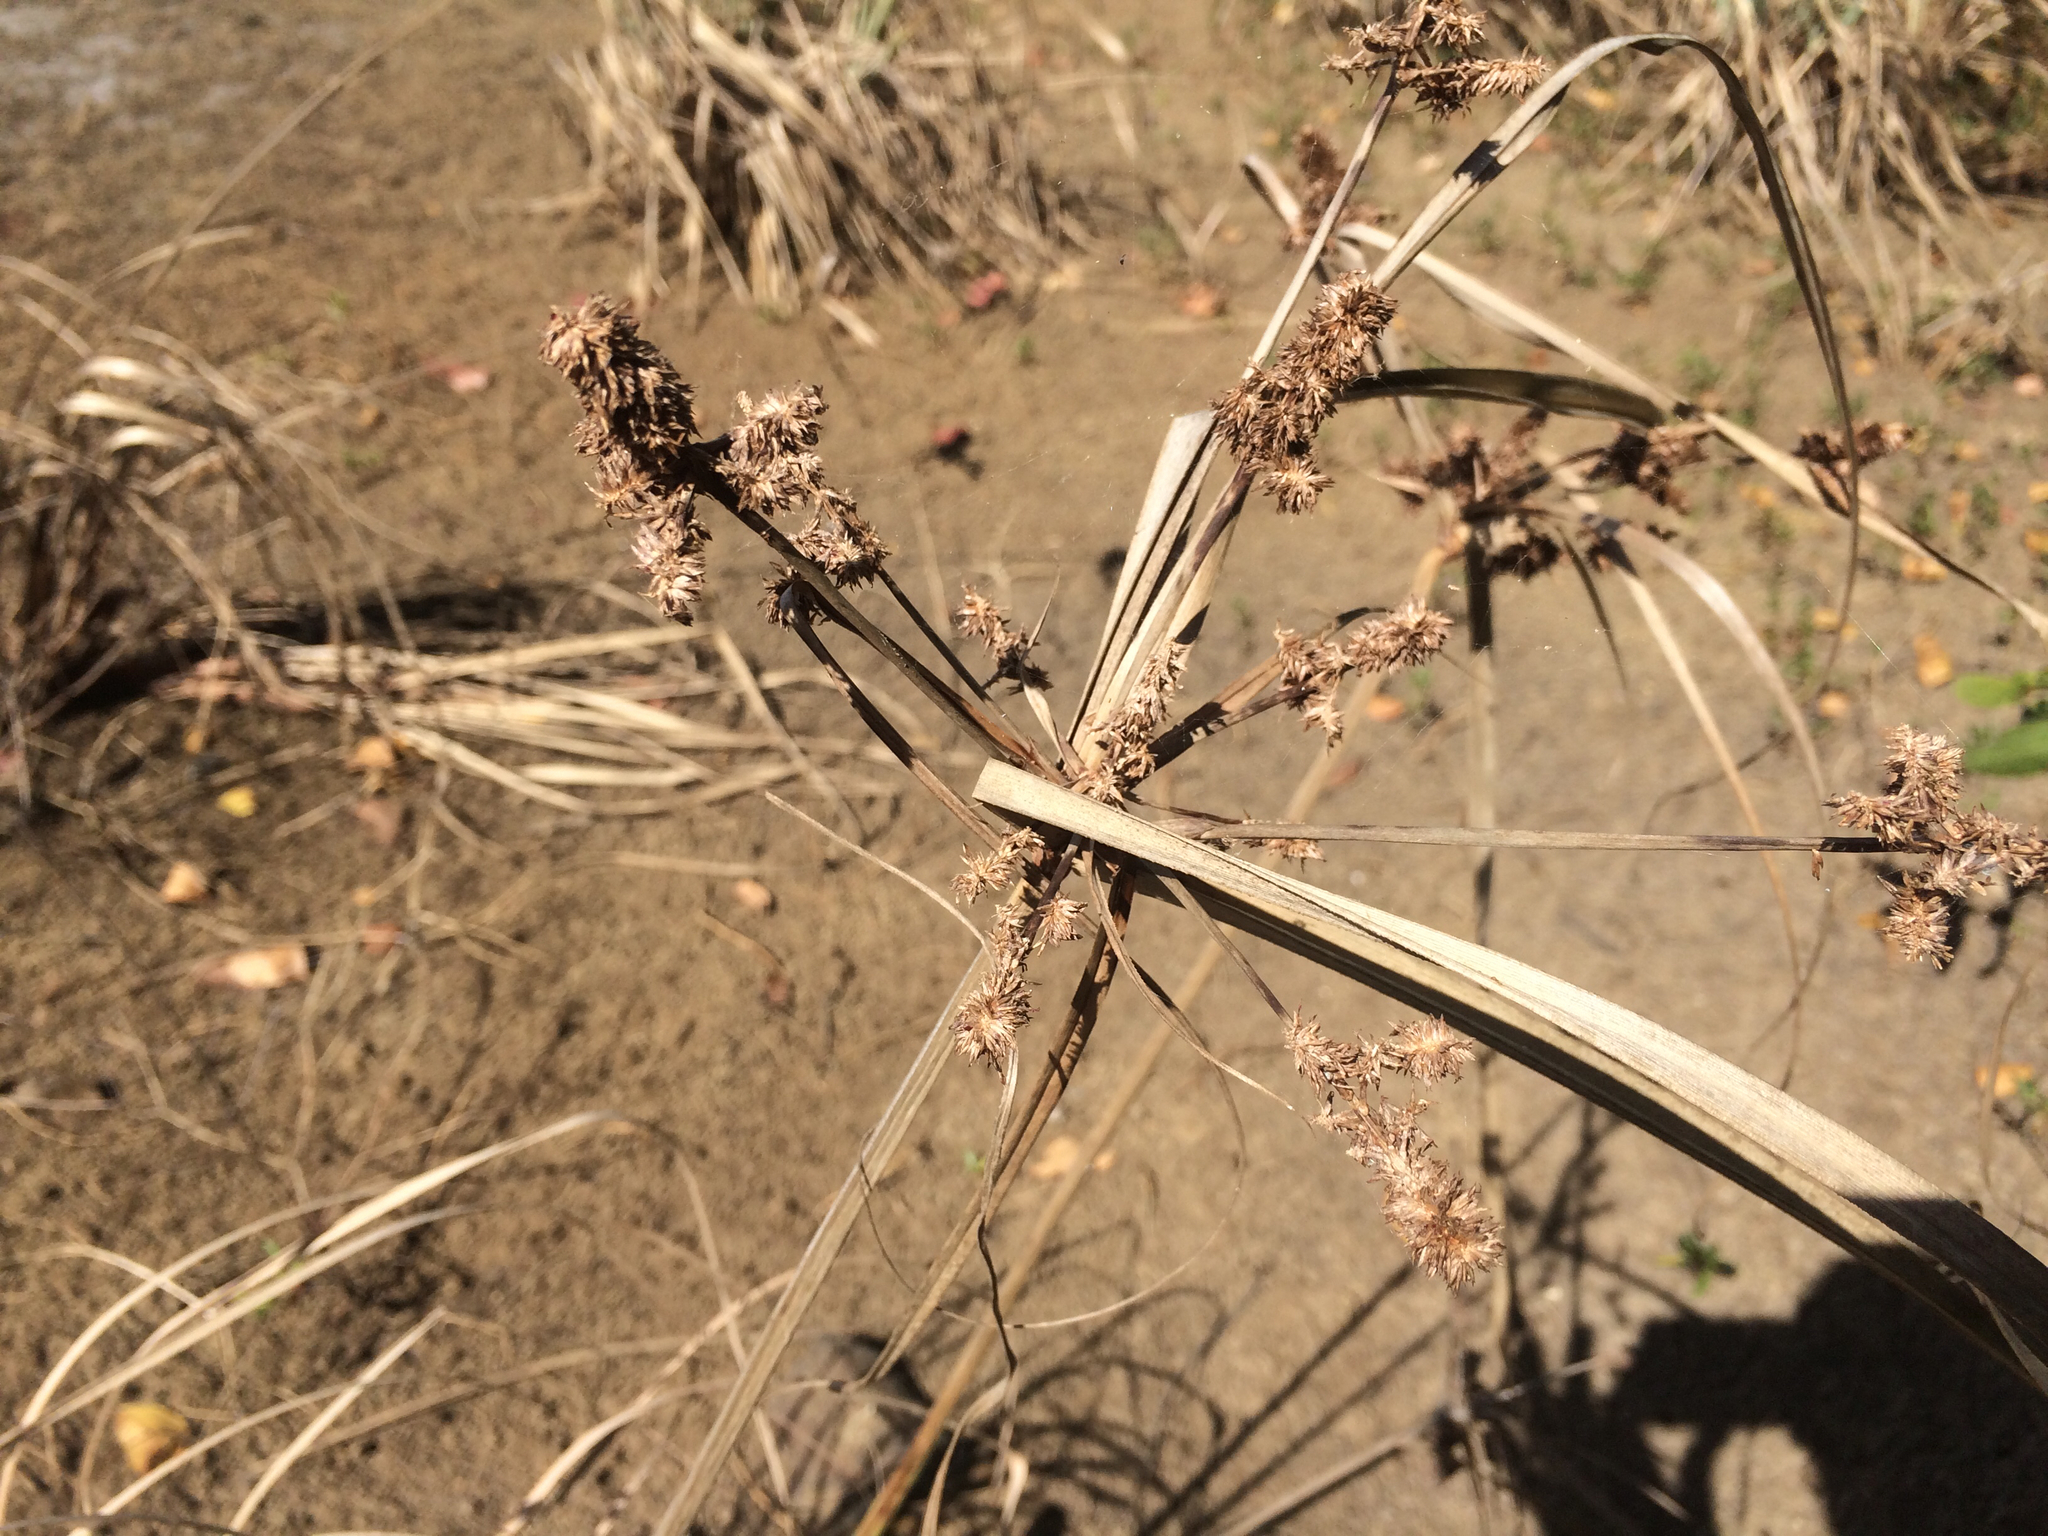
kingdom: Plantae
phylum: Tracheophyta
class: Liliopsida
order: Poales
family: Cyperaceae
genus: Cyperus
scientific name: Cyperus ligularis
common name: Swamp flat sedge
